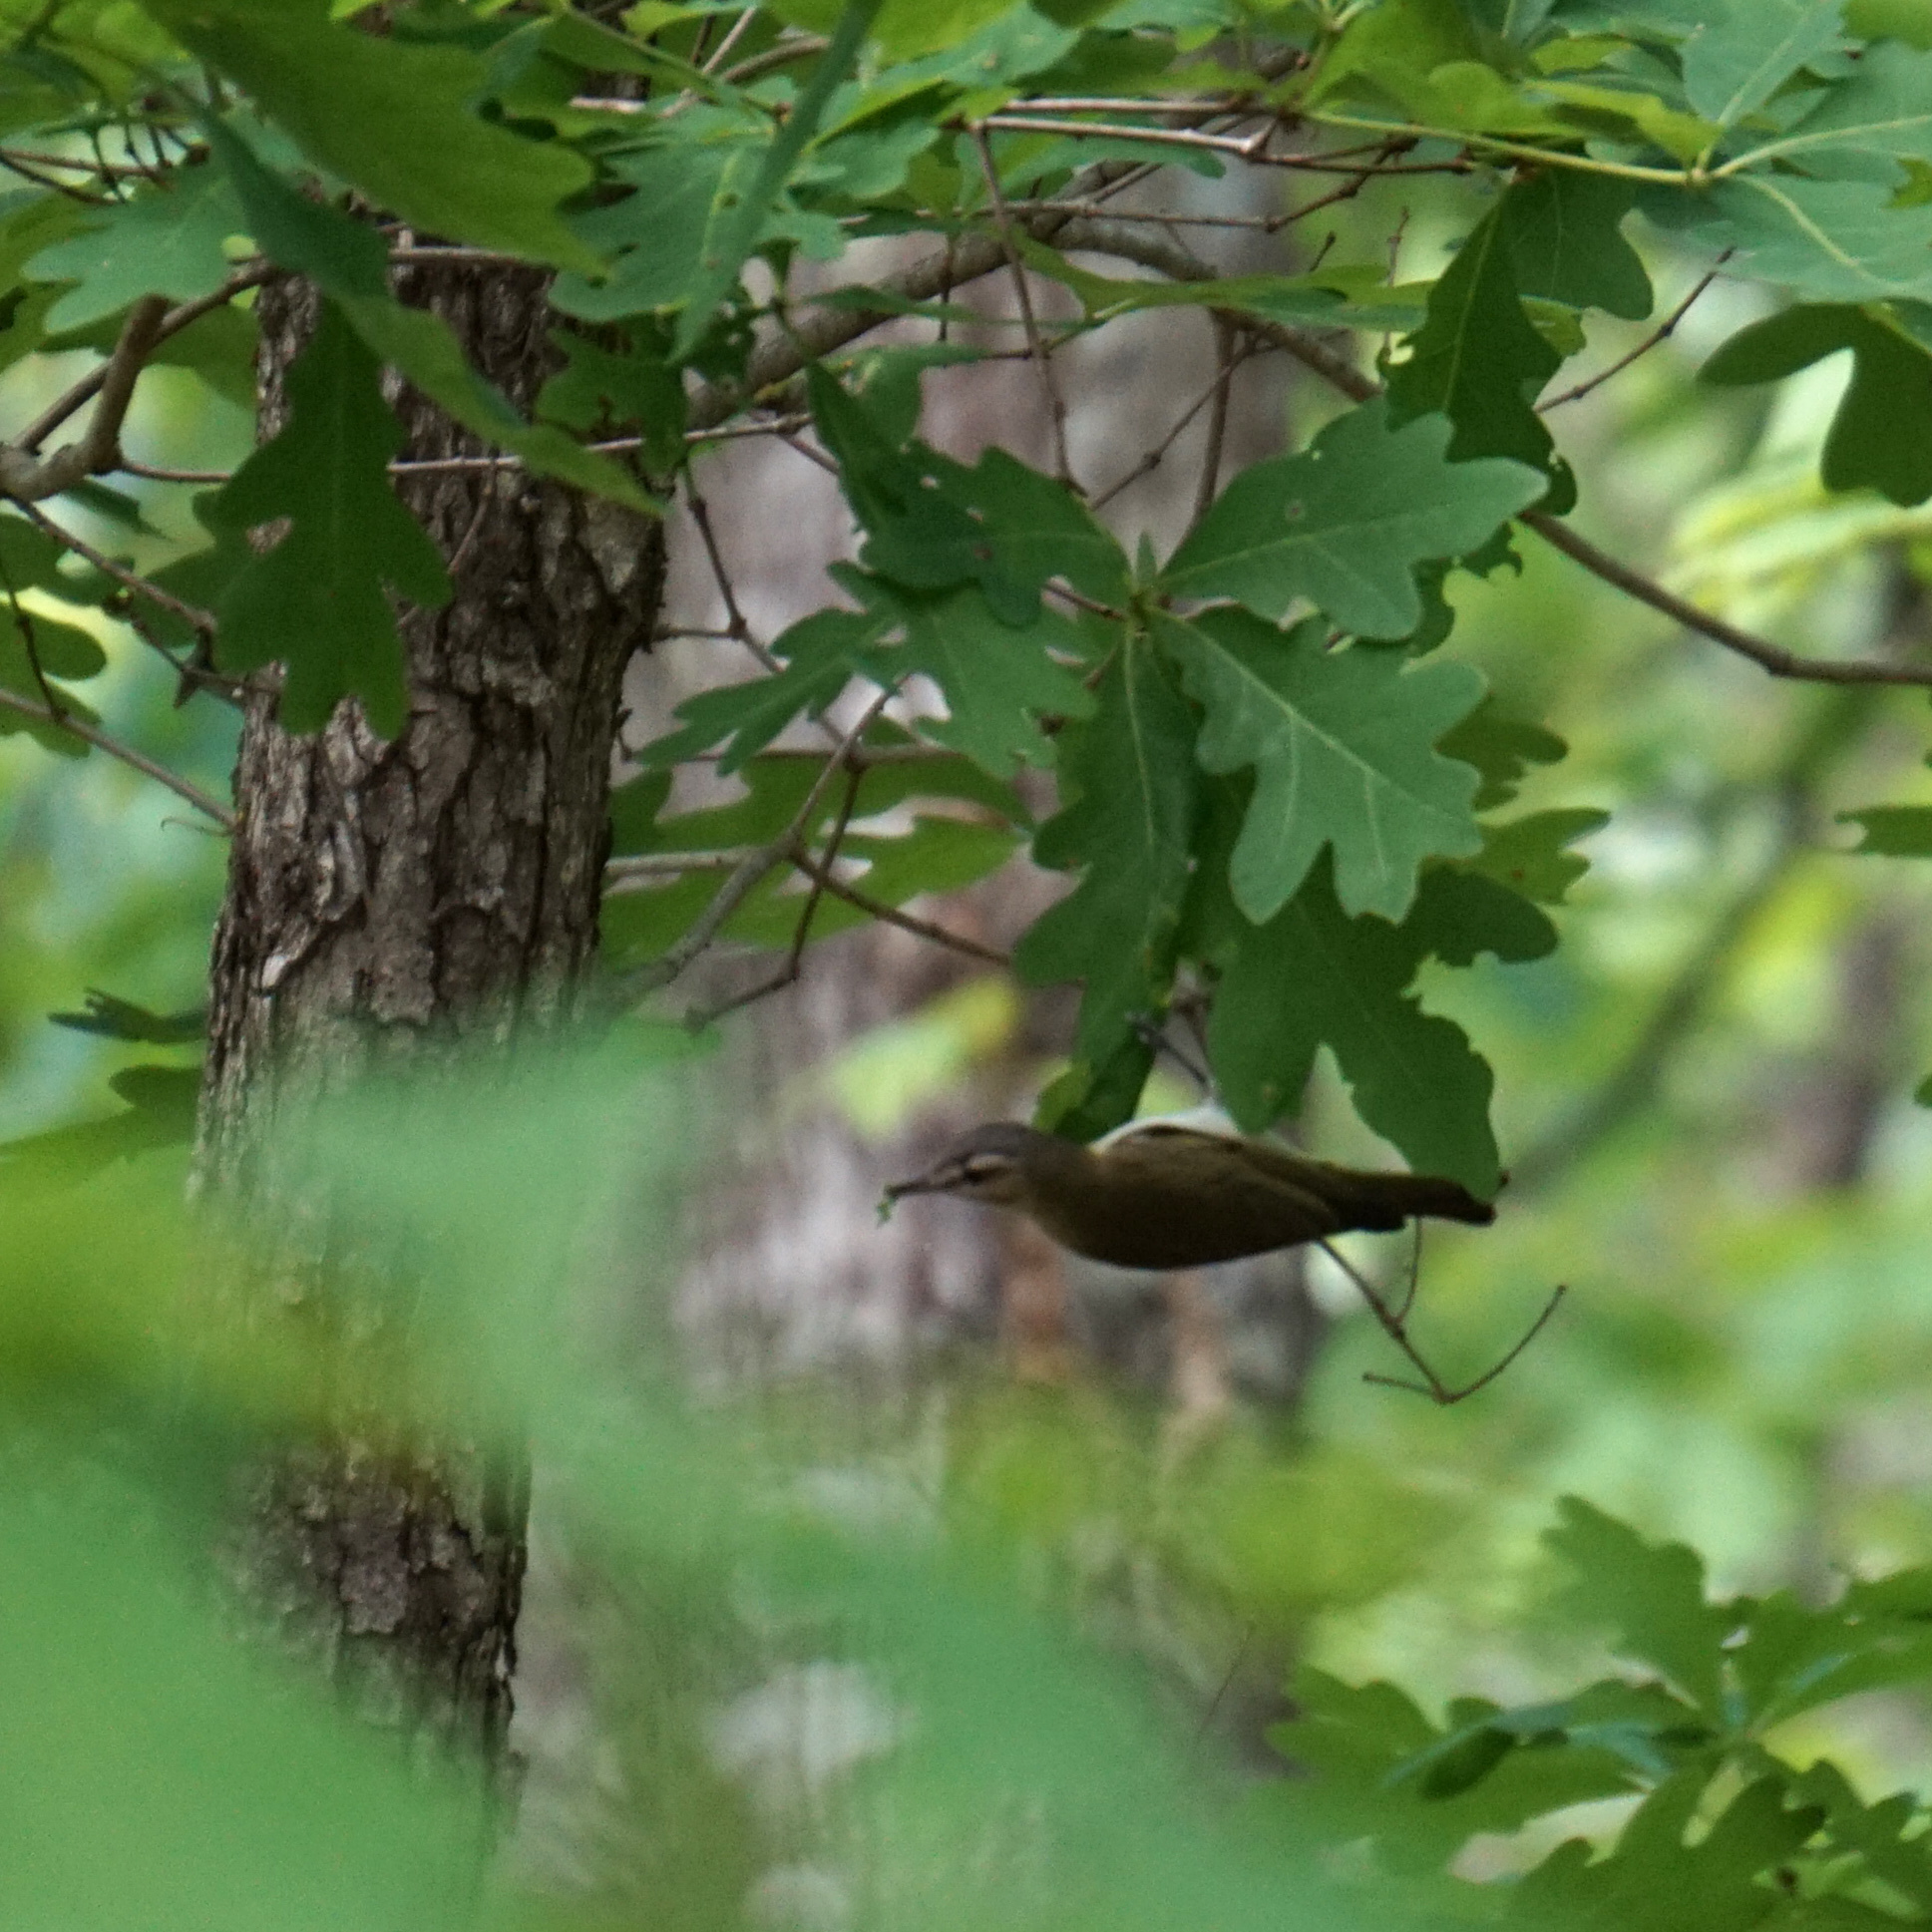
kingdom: Animalia
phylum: Chordata
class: Aves
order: Passeriformes
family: Vireonidae
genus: Vireo
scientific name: Vireo olivaceus
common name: Red-eyed vireo
